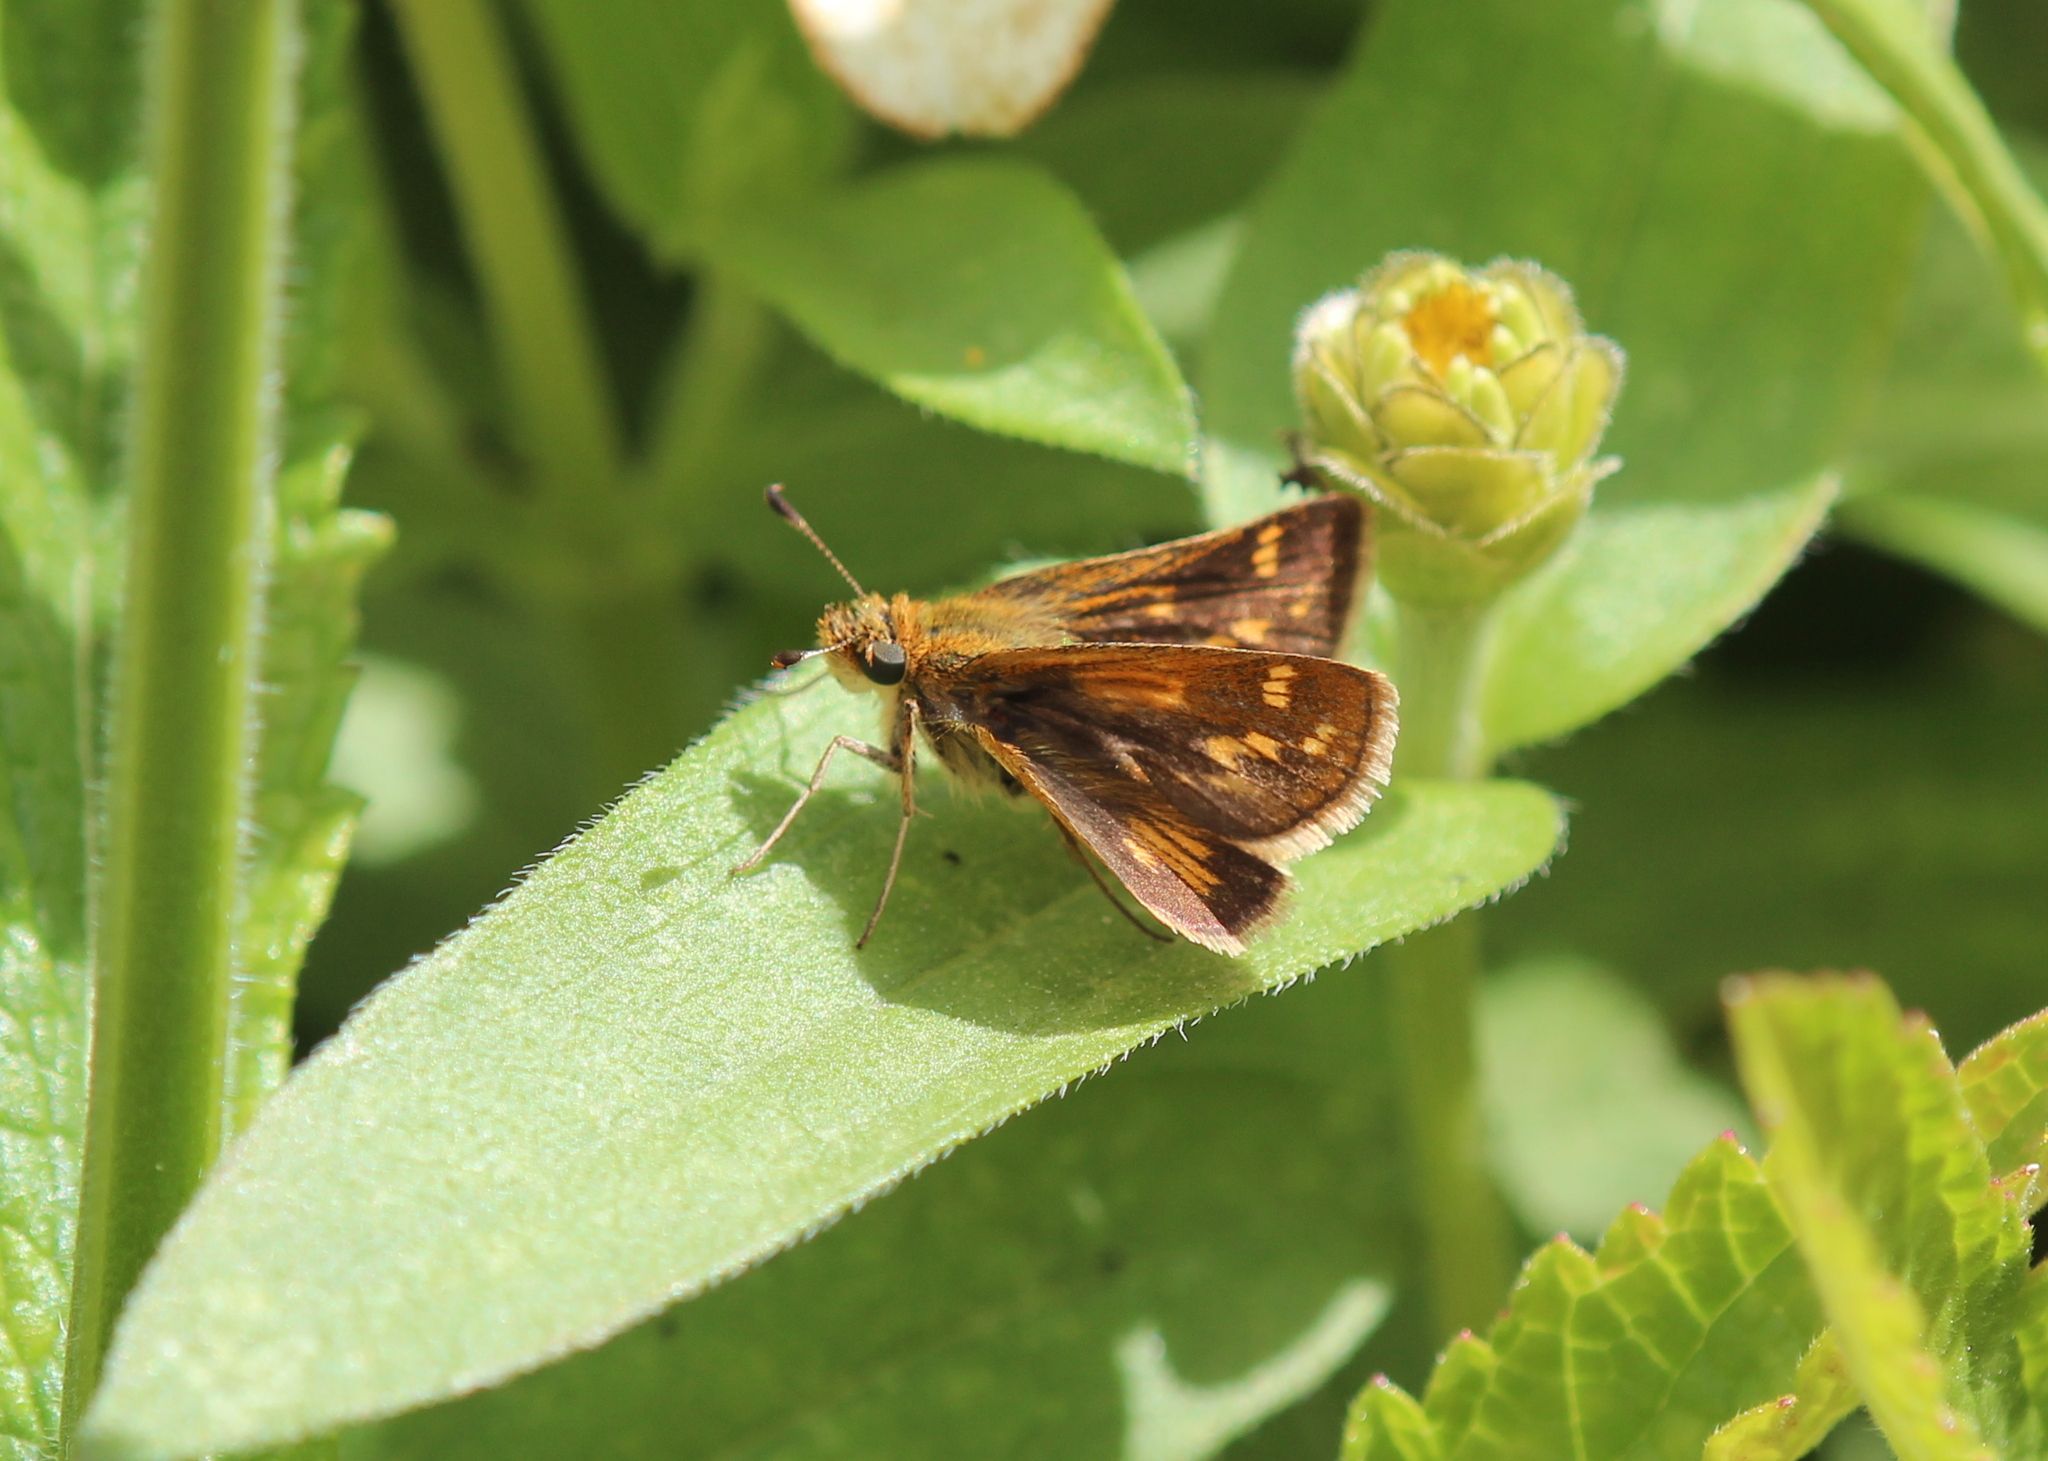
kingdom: Animalia
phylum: Arthropoda
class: Insecta
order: Lepidoptera
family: Hesperiidae
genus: Polites
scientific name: Polites coras
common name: Peck's skipper
